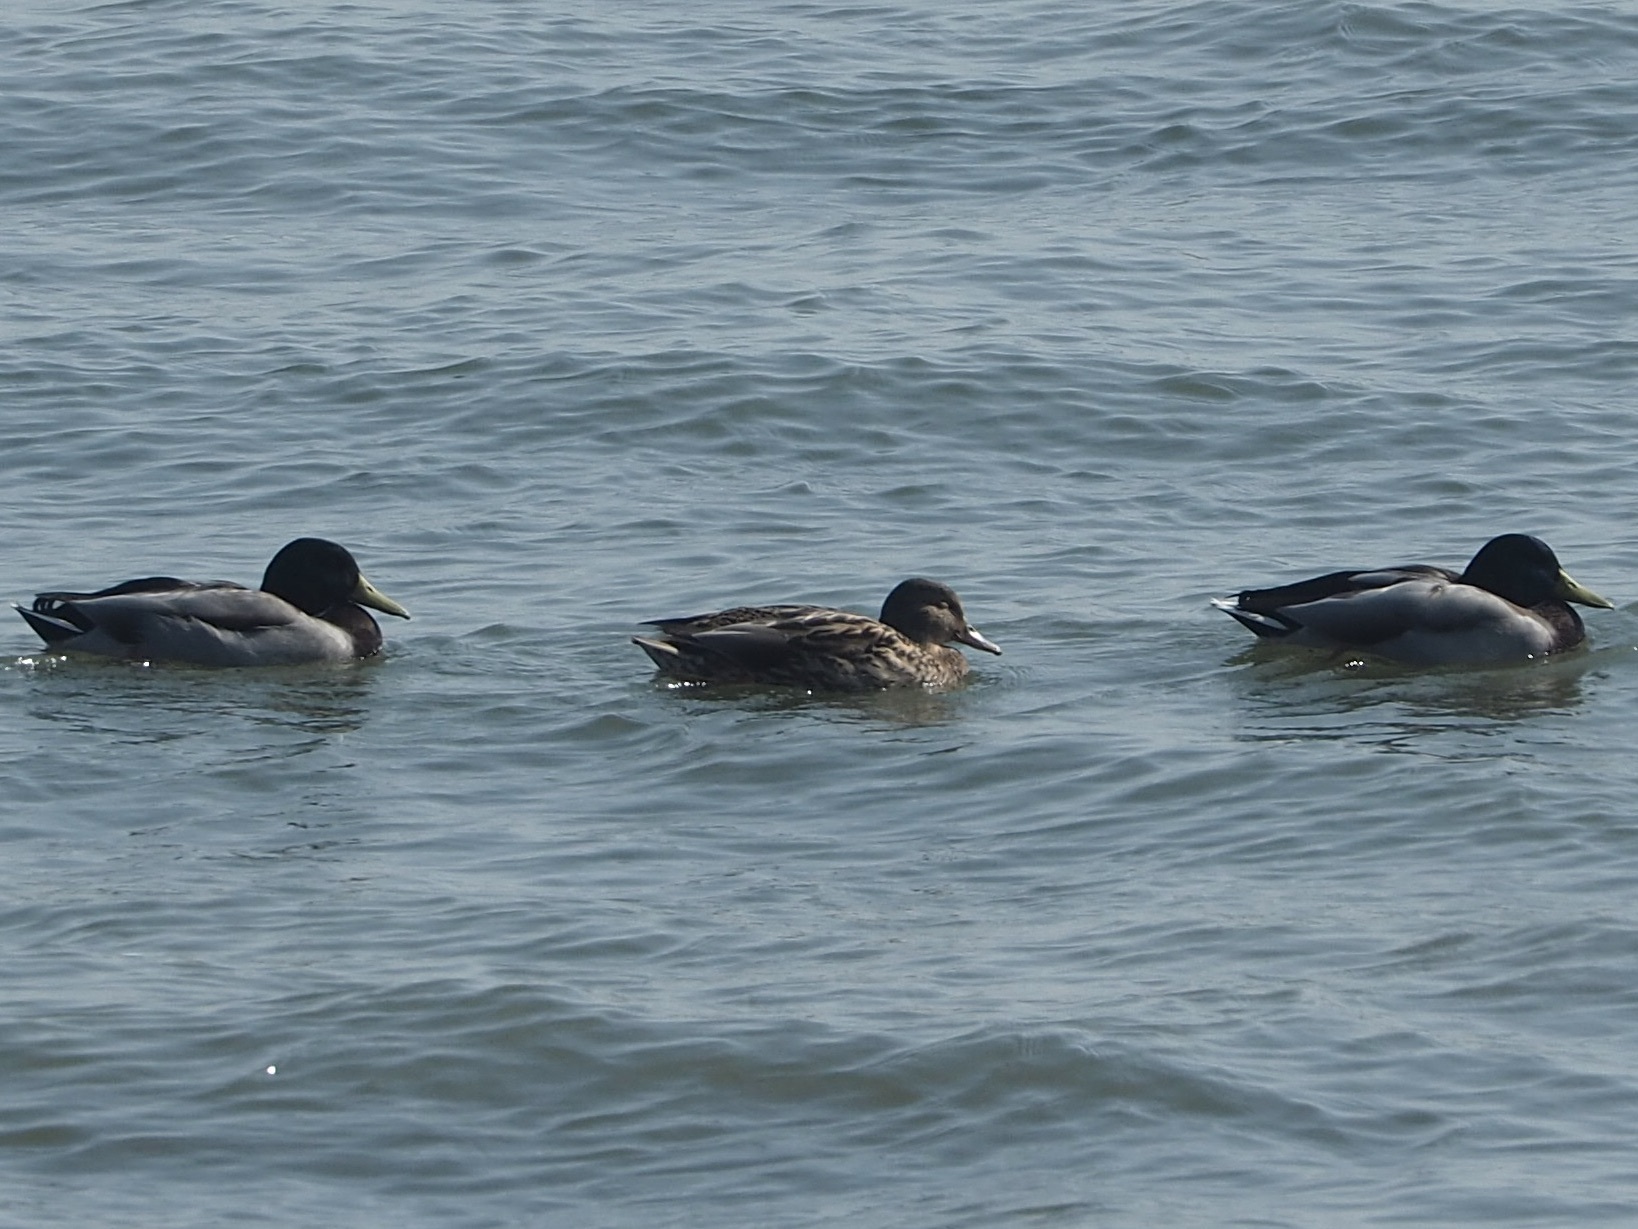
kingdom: Animalia
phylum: Chordata
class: Aves
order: Anseriformes
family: Anatidae
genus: Anas
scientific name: Anas platyrhynchos
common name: Mallard
